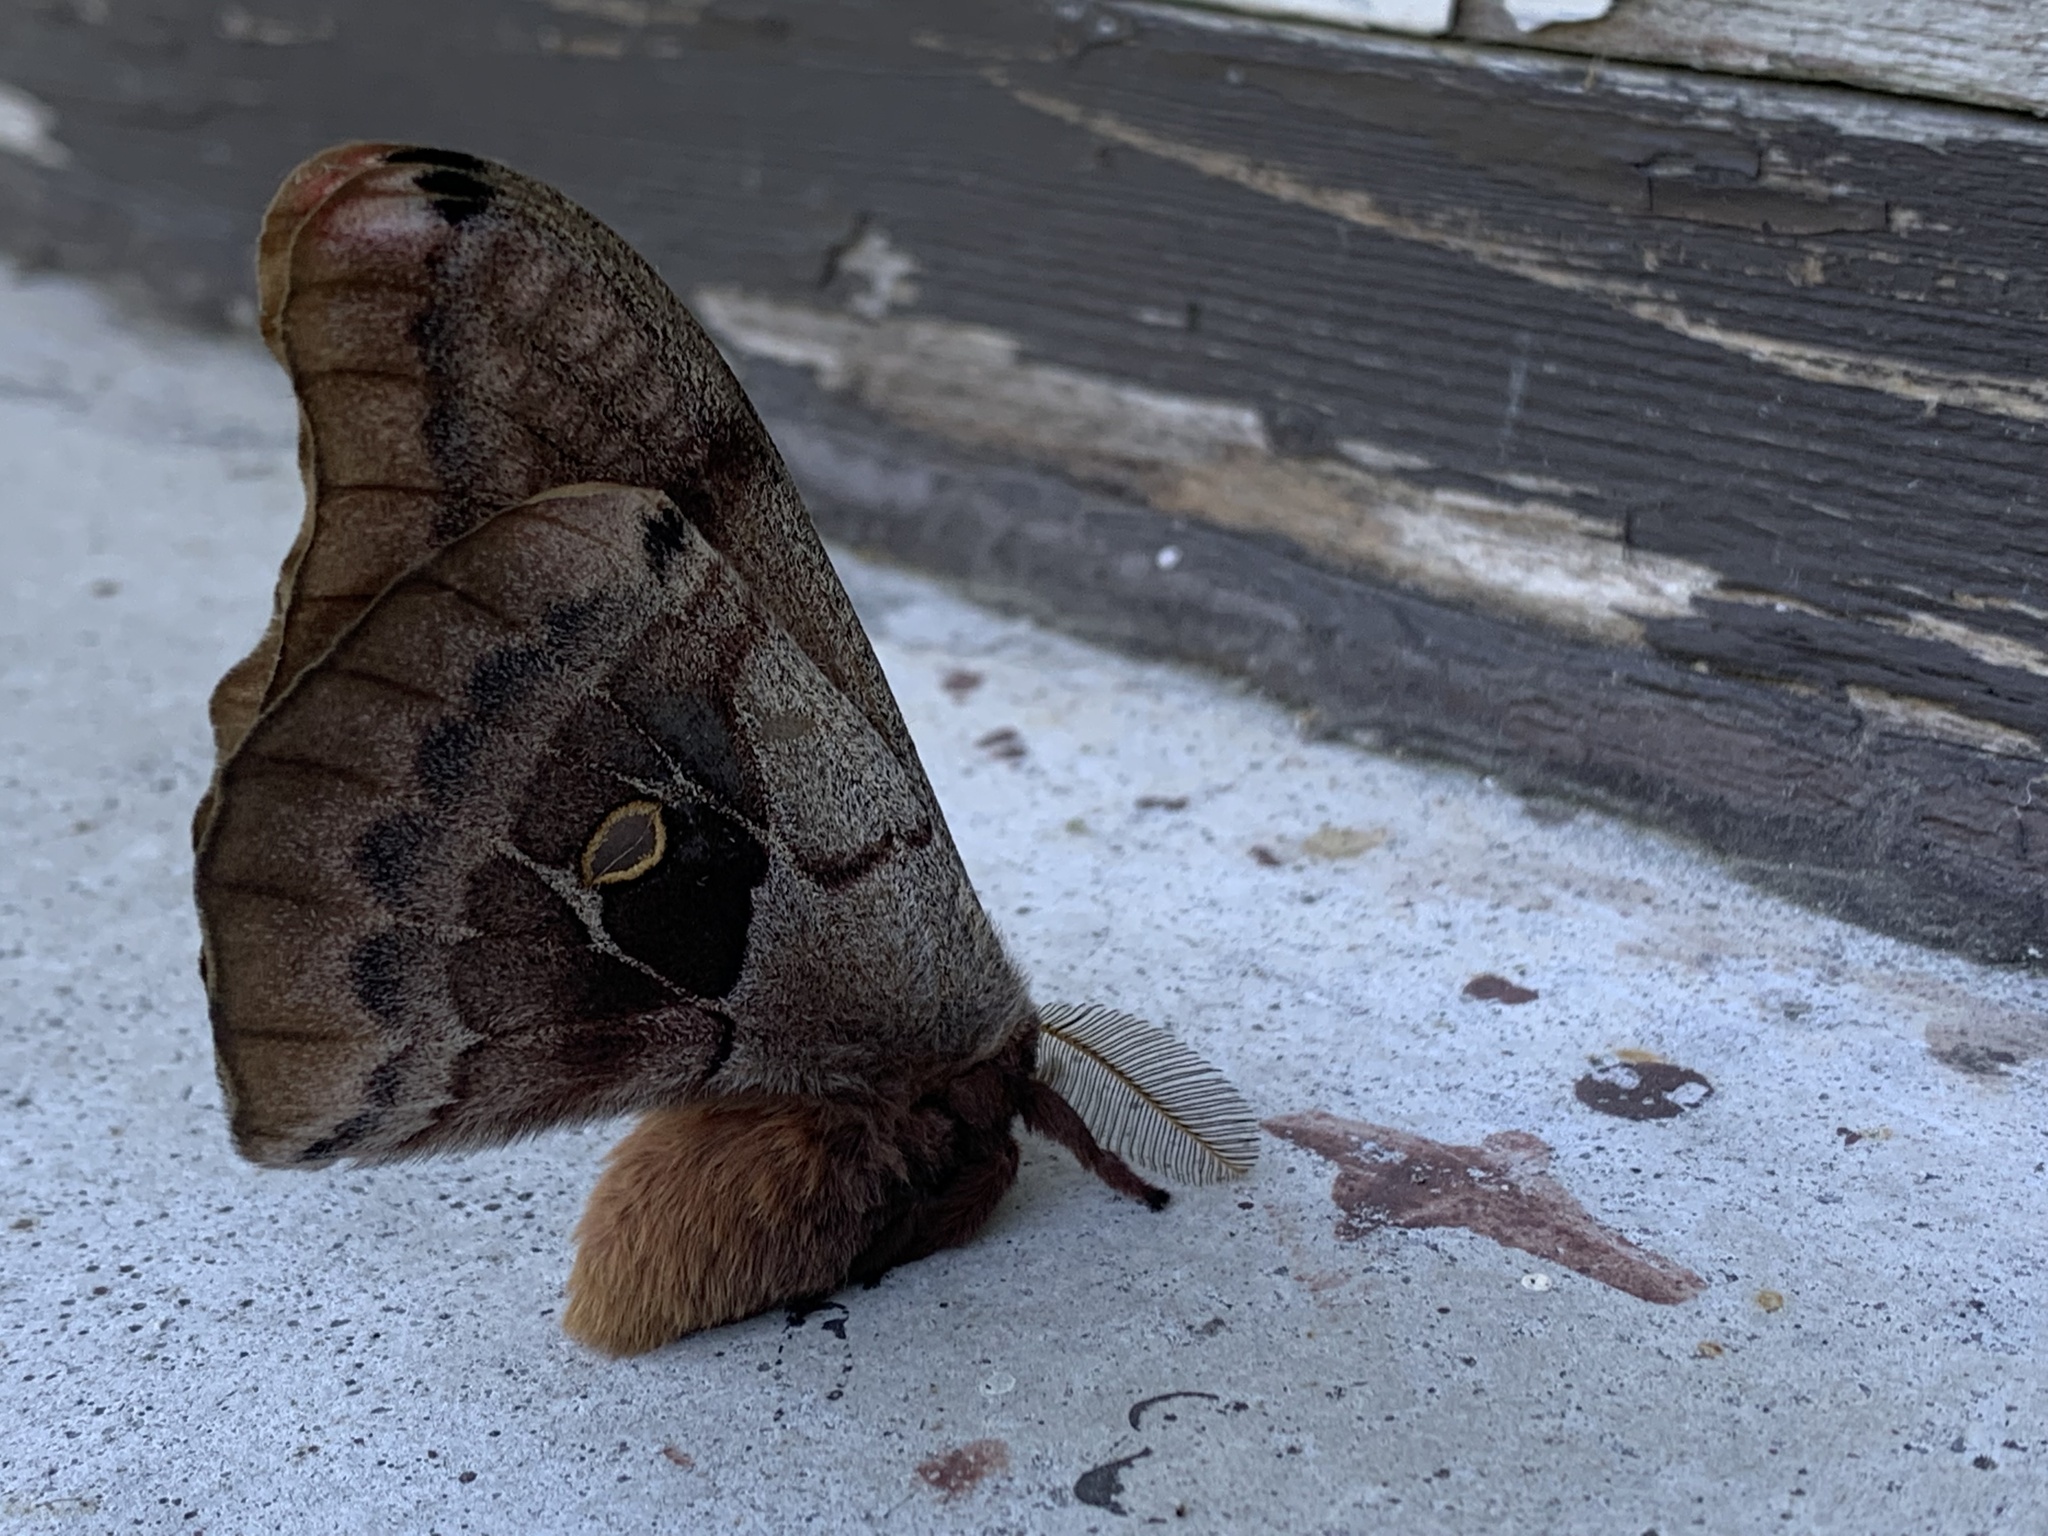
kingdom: Animalia
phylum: Arthropoda
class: Insecta
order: Lepidoptera
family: Saturniidae
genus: Antheraea
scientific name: Antheraea polyphemus
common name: Polyphemus moth
